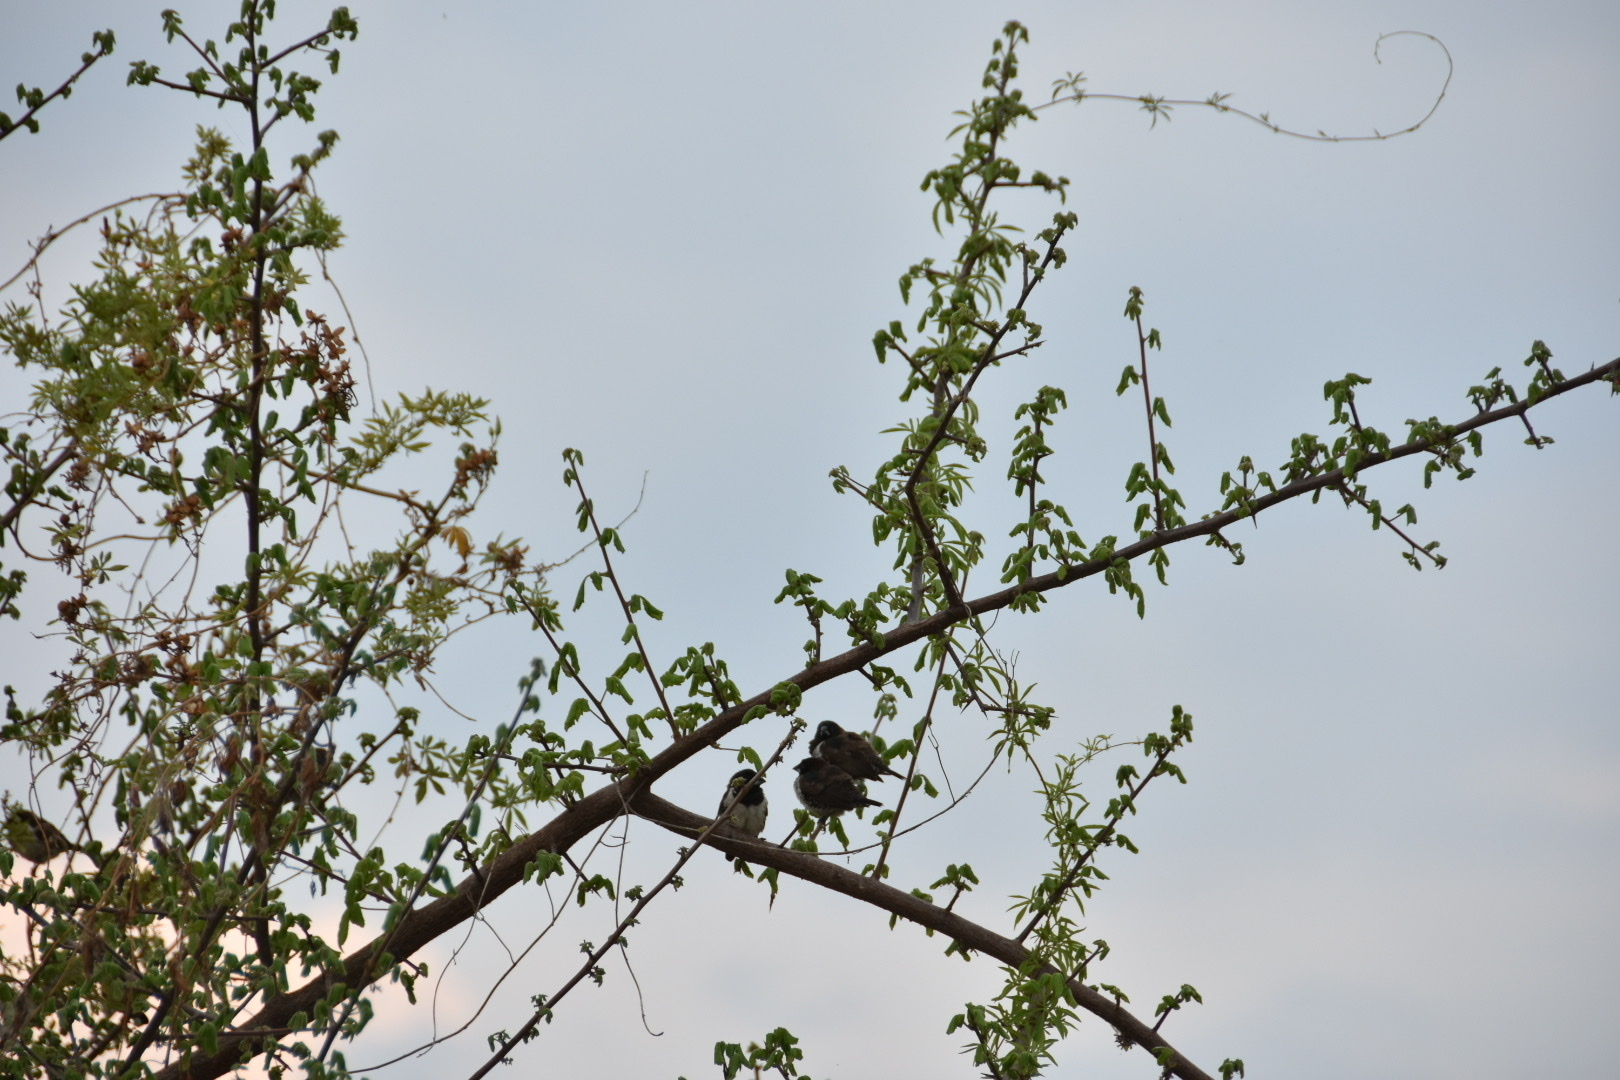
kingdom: Animalia
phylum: Chordata
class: Aves
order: Passeriformes
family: Estrildidae
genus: Lonchura
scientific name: Lonchura cucullata
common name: Bronze mannikin
